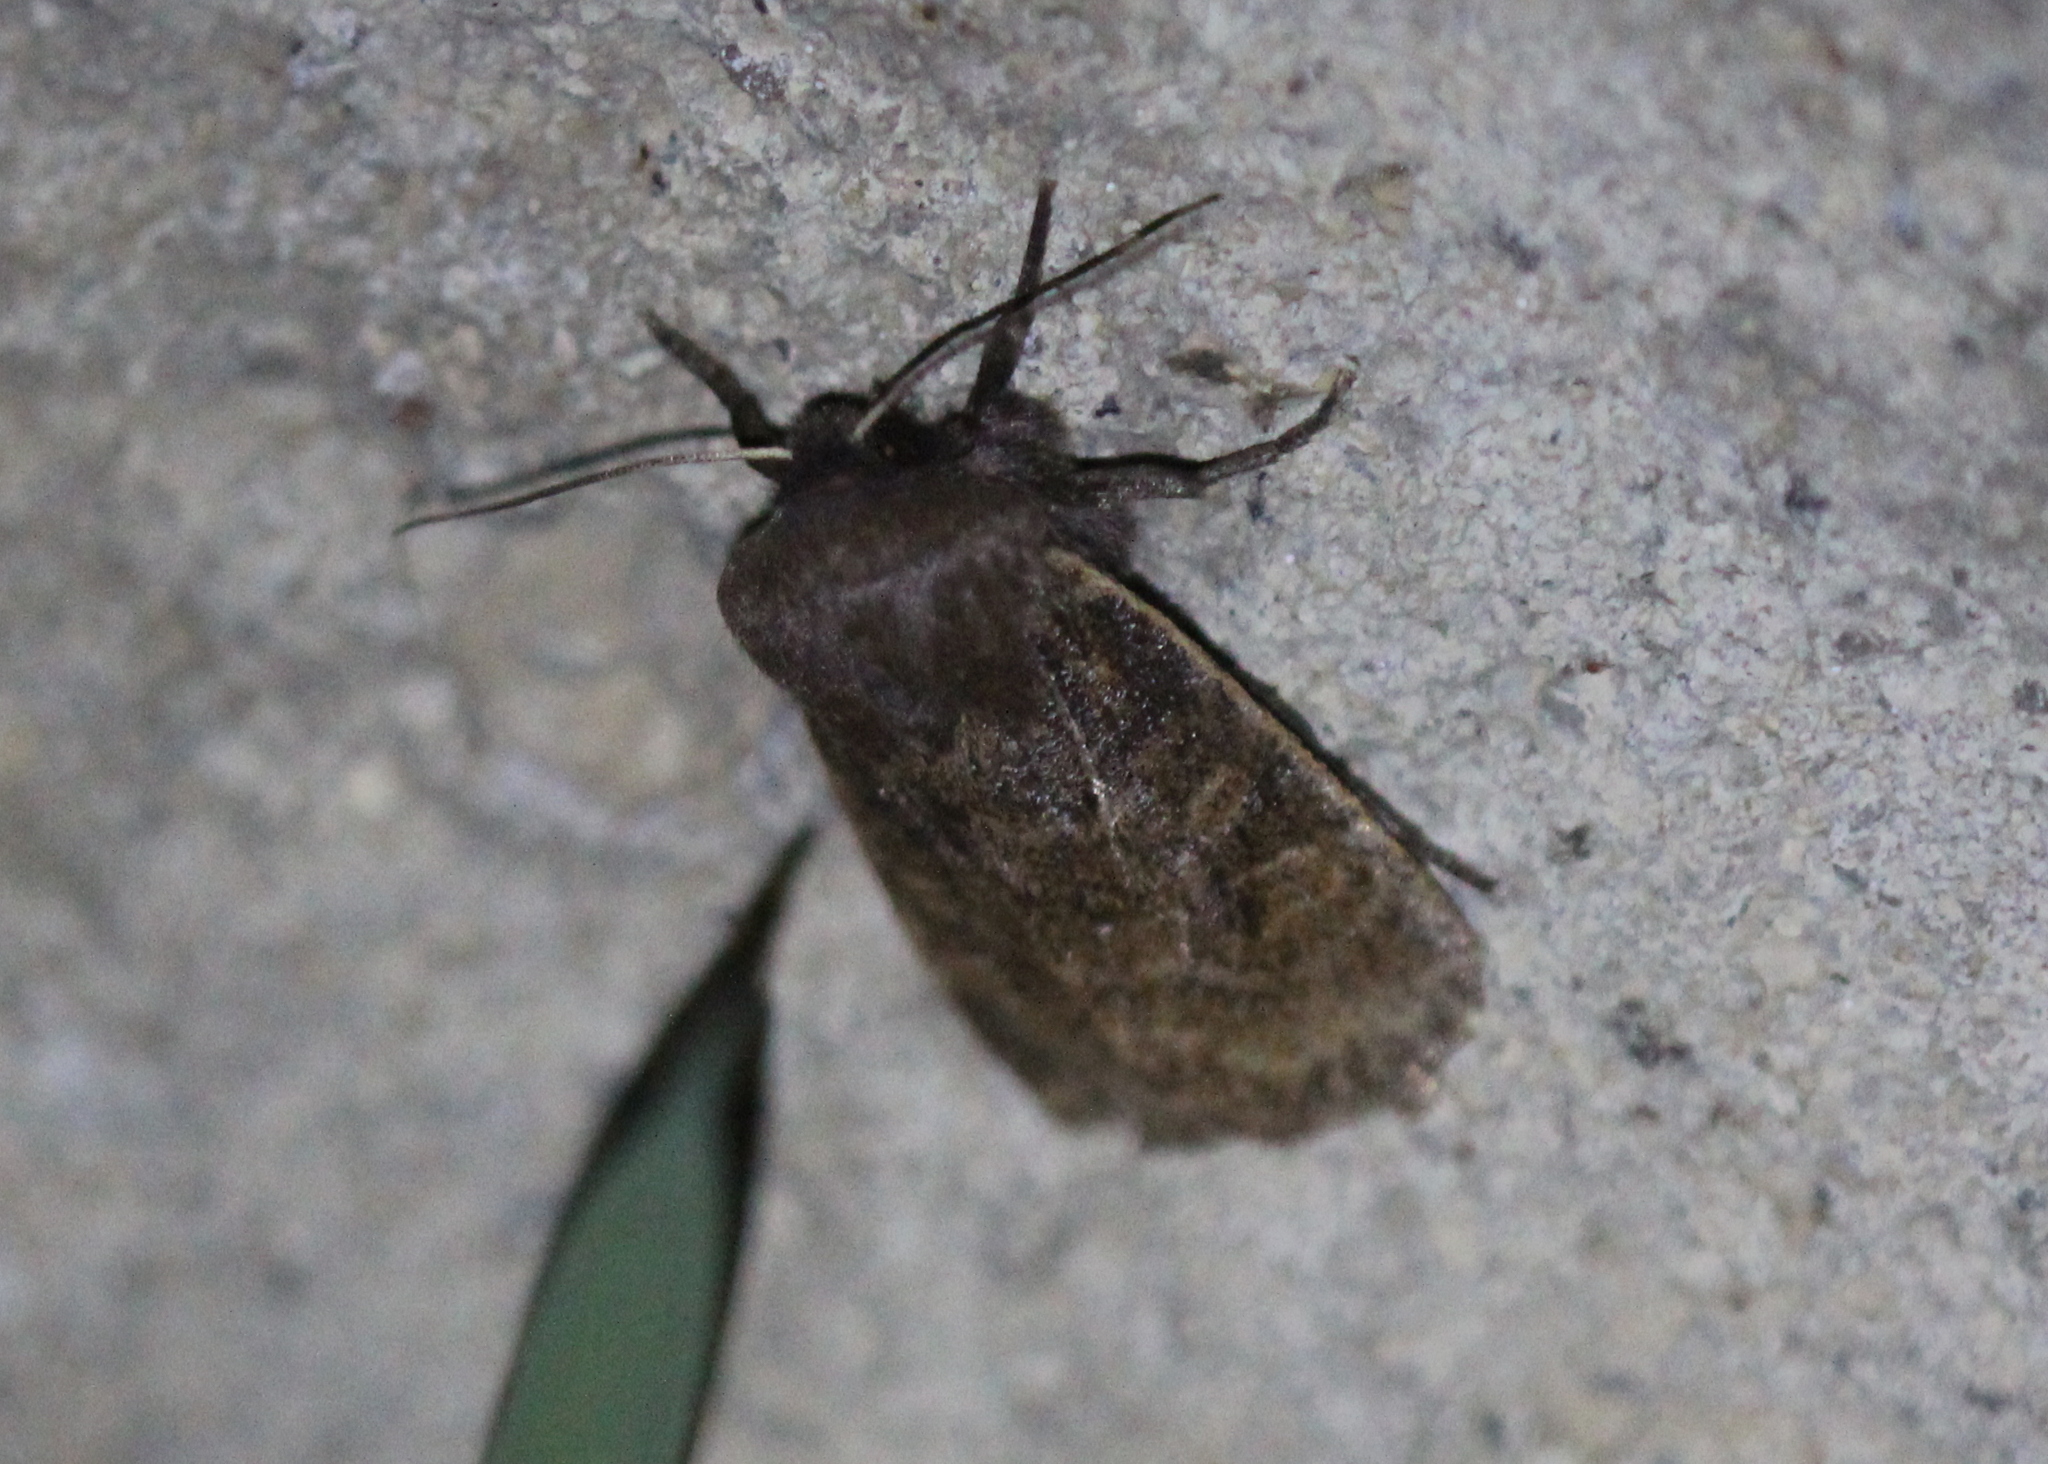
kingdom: Animalia
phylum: Arthropoda
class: Insecta
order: Lepidoptera
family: Noctuidae
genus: Homoglaea
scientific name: Homoglaea hircina
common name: Goat sallow
